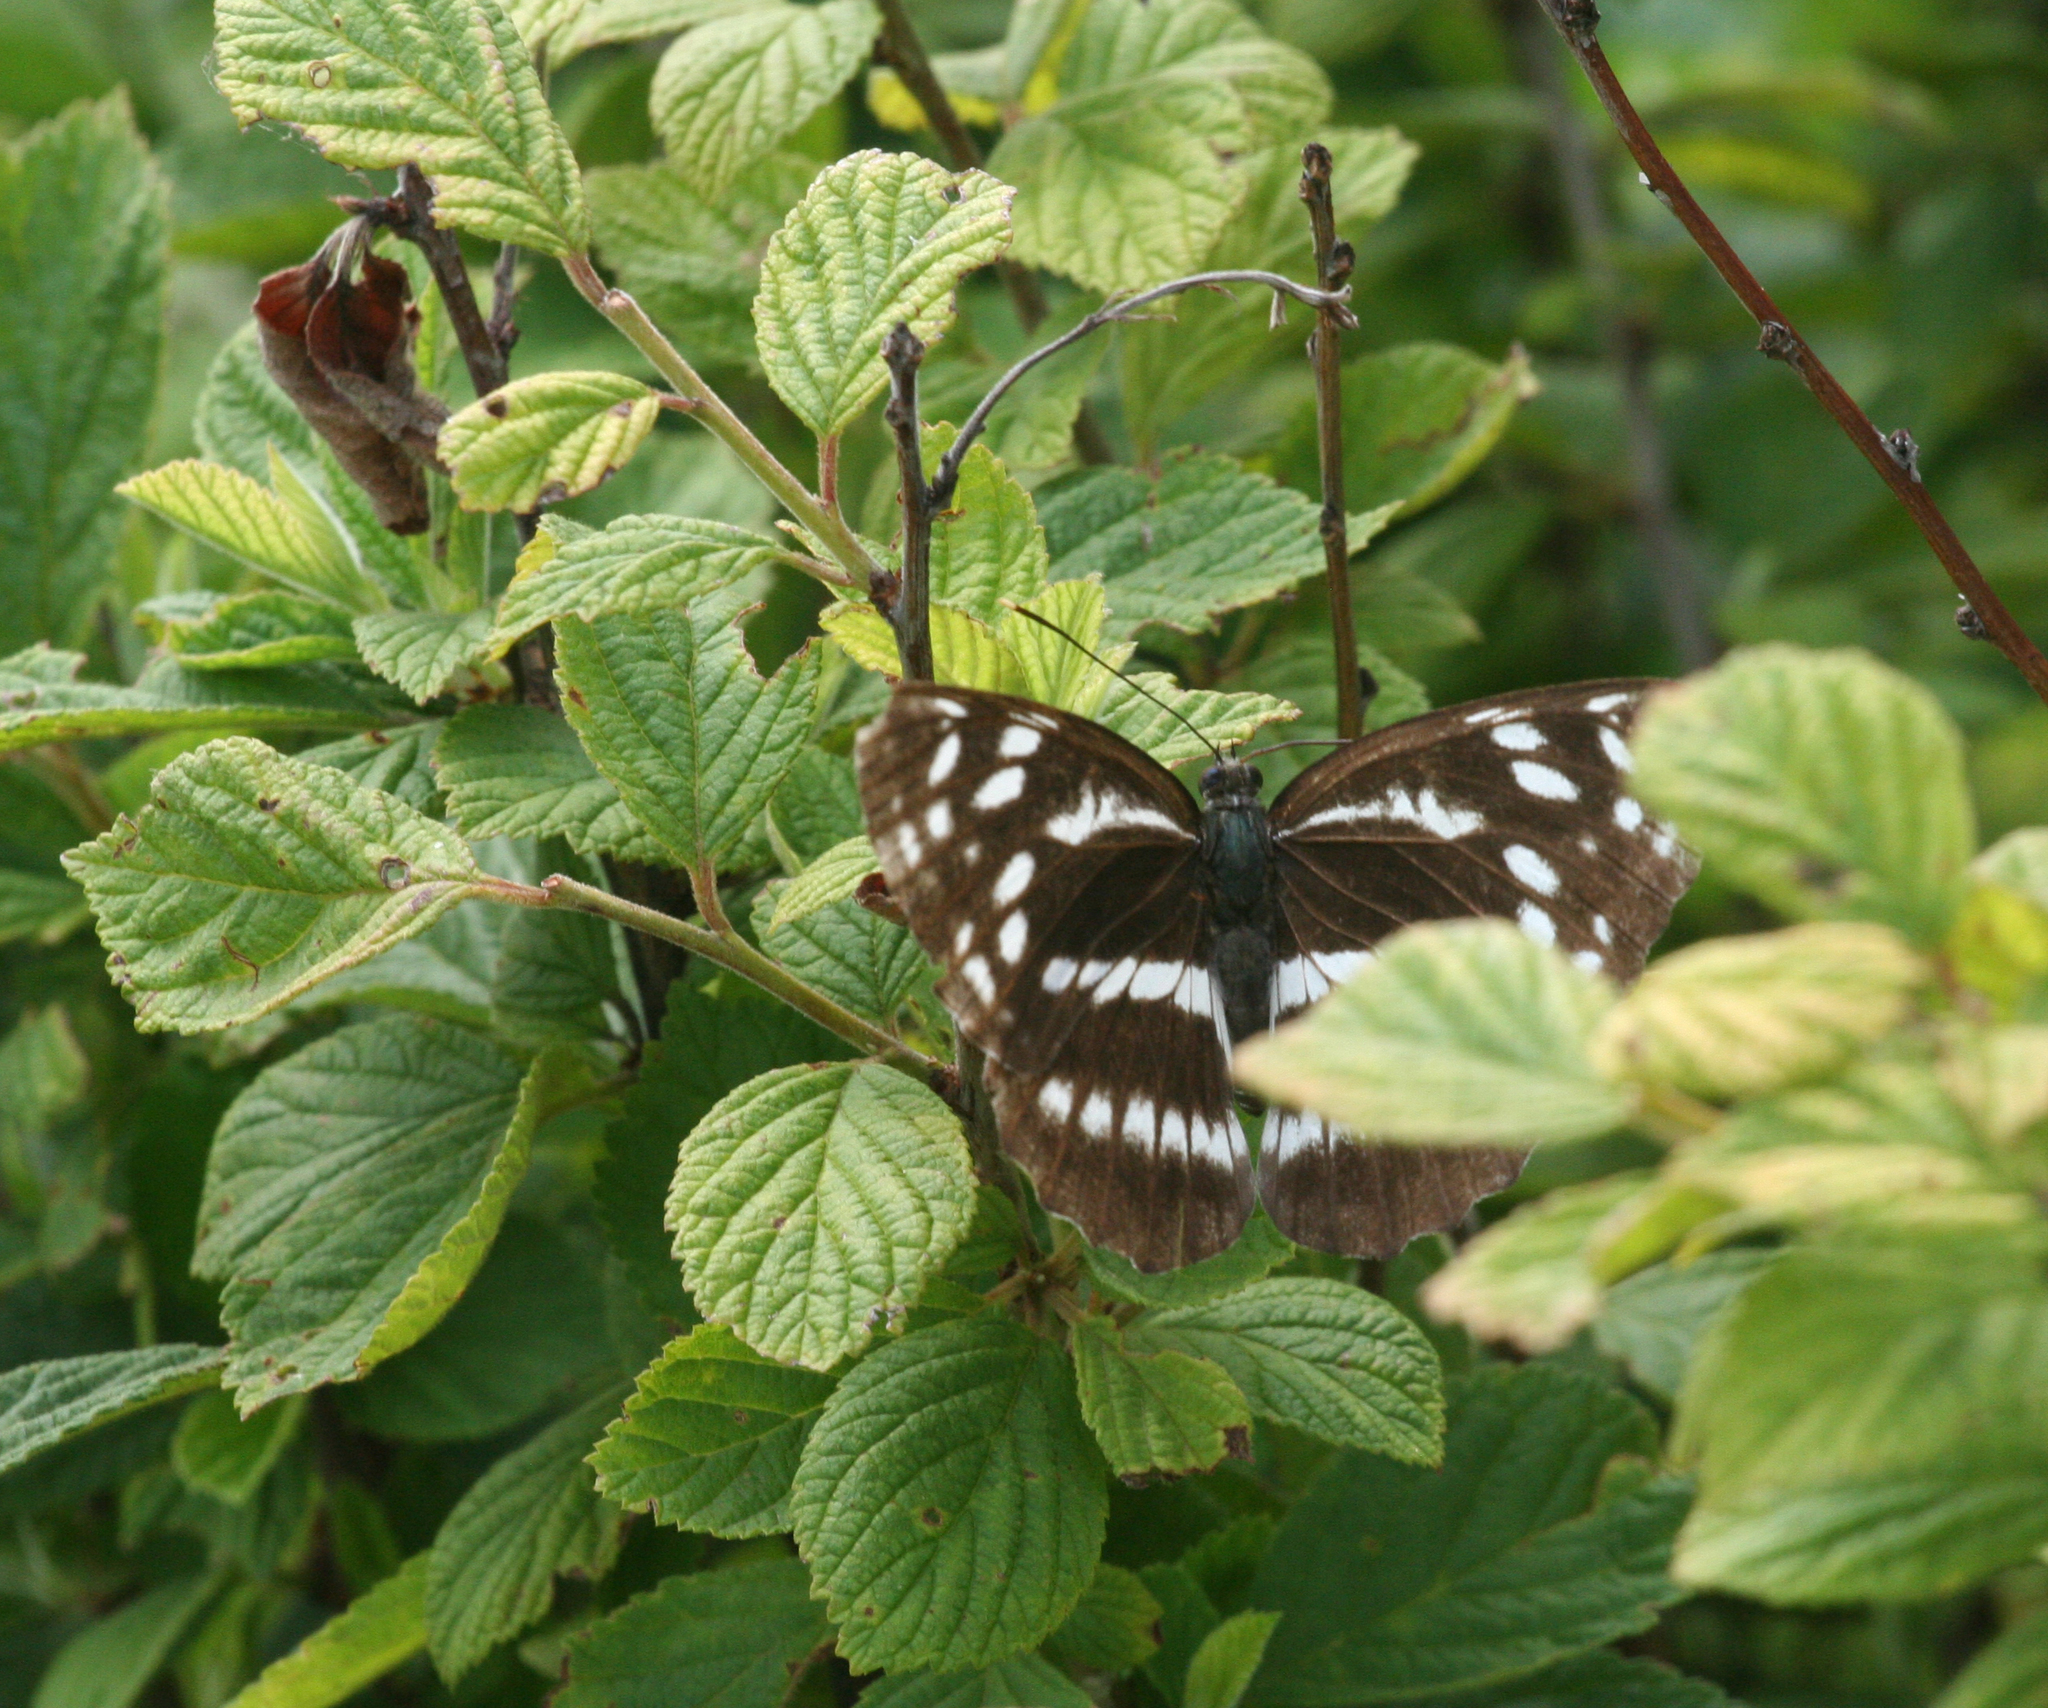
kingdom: Animalia
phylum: Arthropoda
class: Insecta
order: Lepidoptera
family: Nymphalidae
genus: Neptis
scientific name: Neptis alwina
